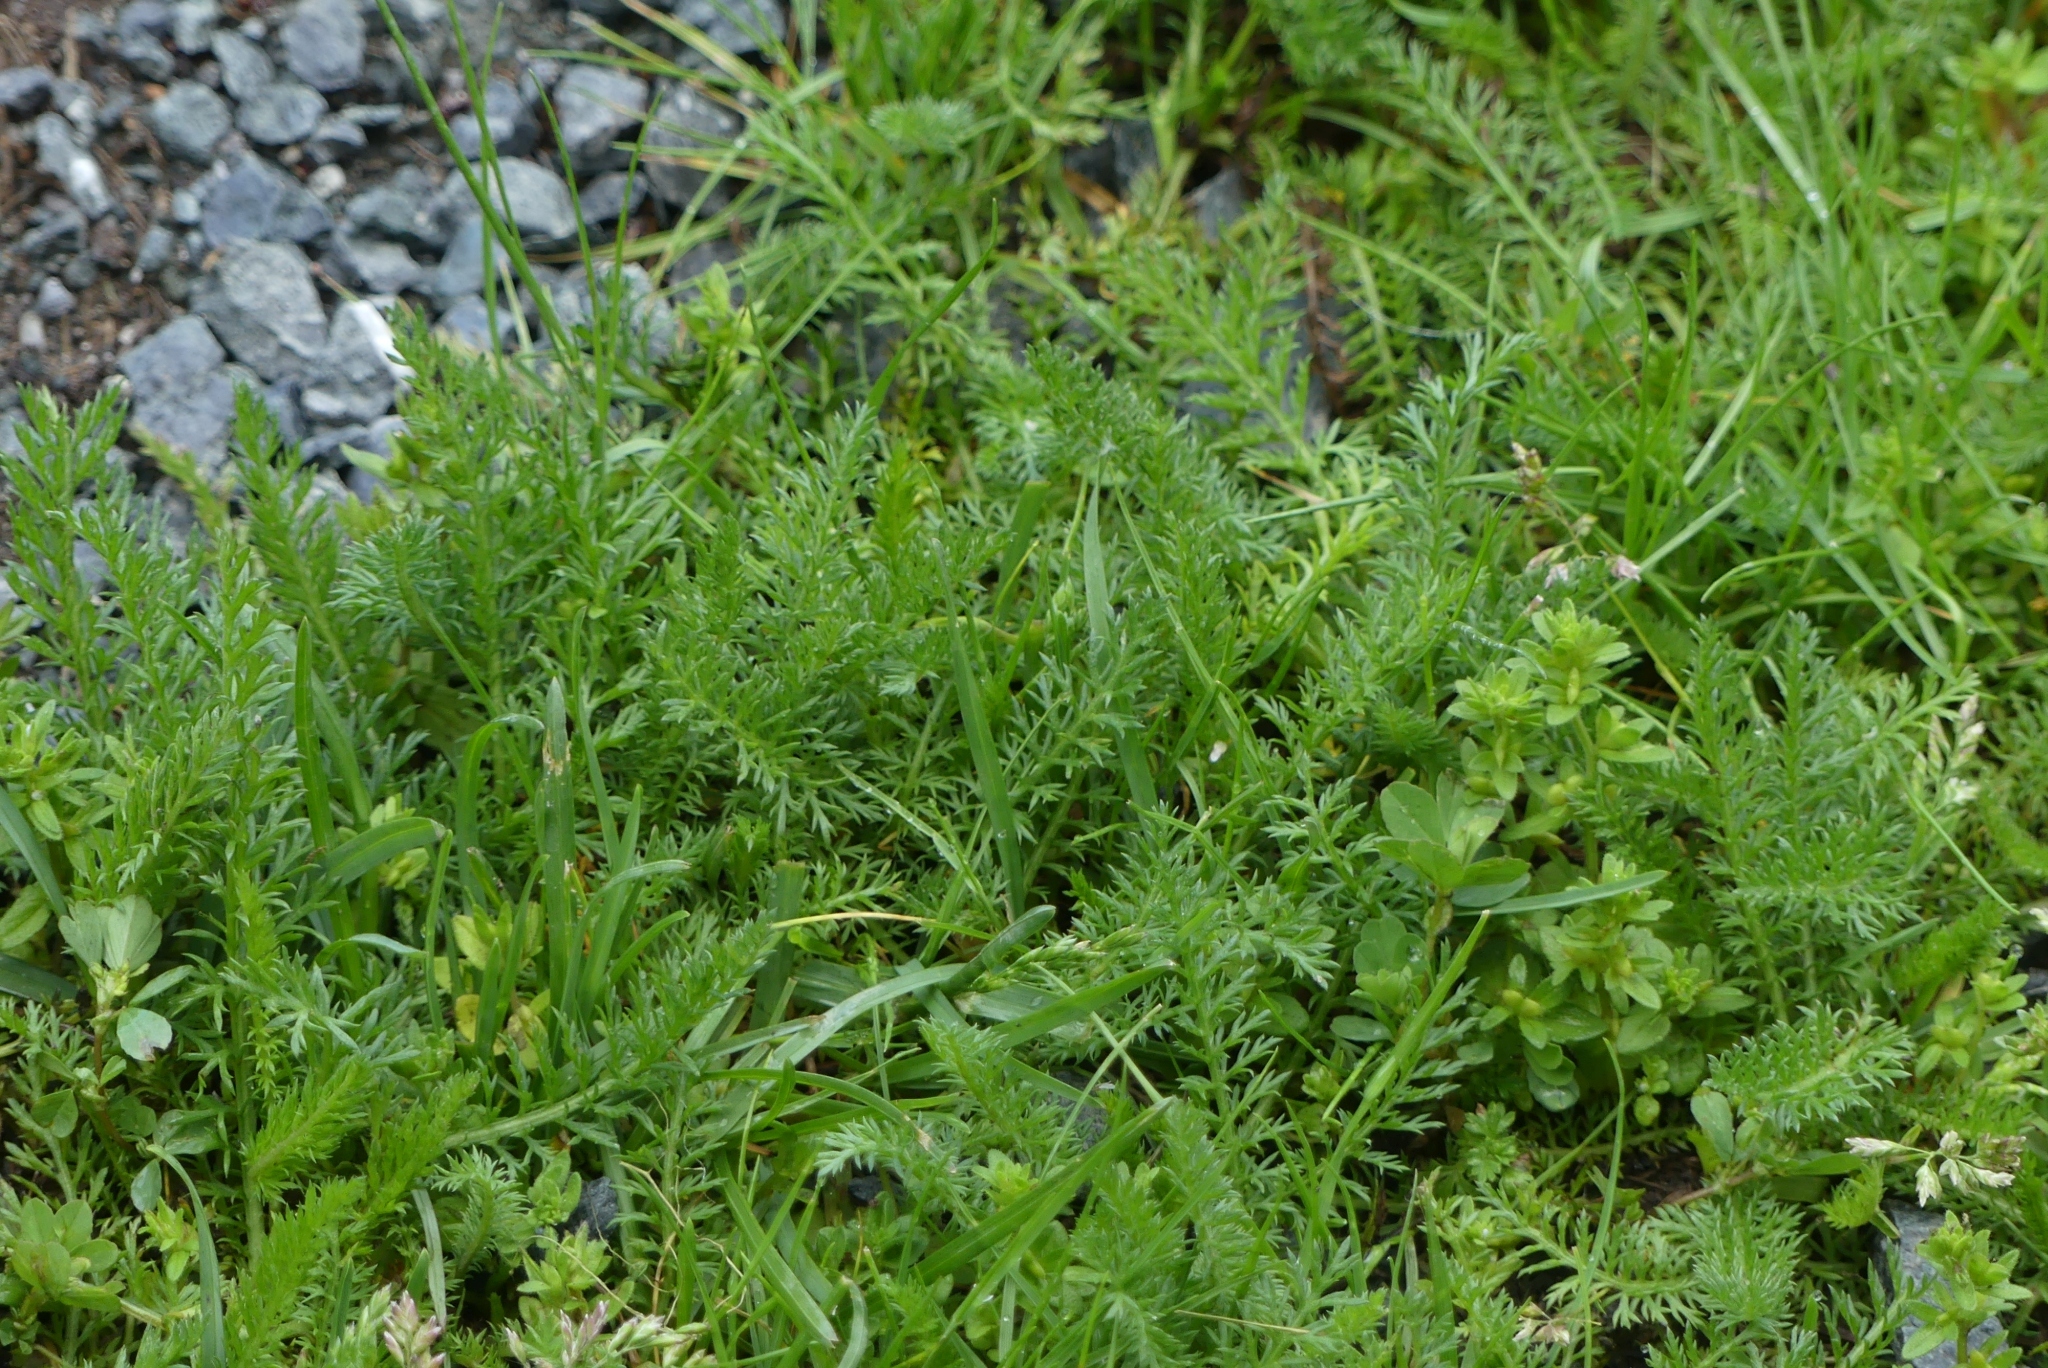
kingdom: Plantae
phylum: Tracheophyta
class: Magnoliopsida
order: Asterales
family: Asteraceae
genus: Achillea
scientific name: Achillea millefolium
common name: Yarrow
